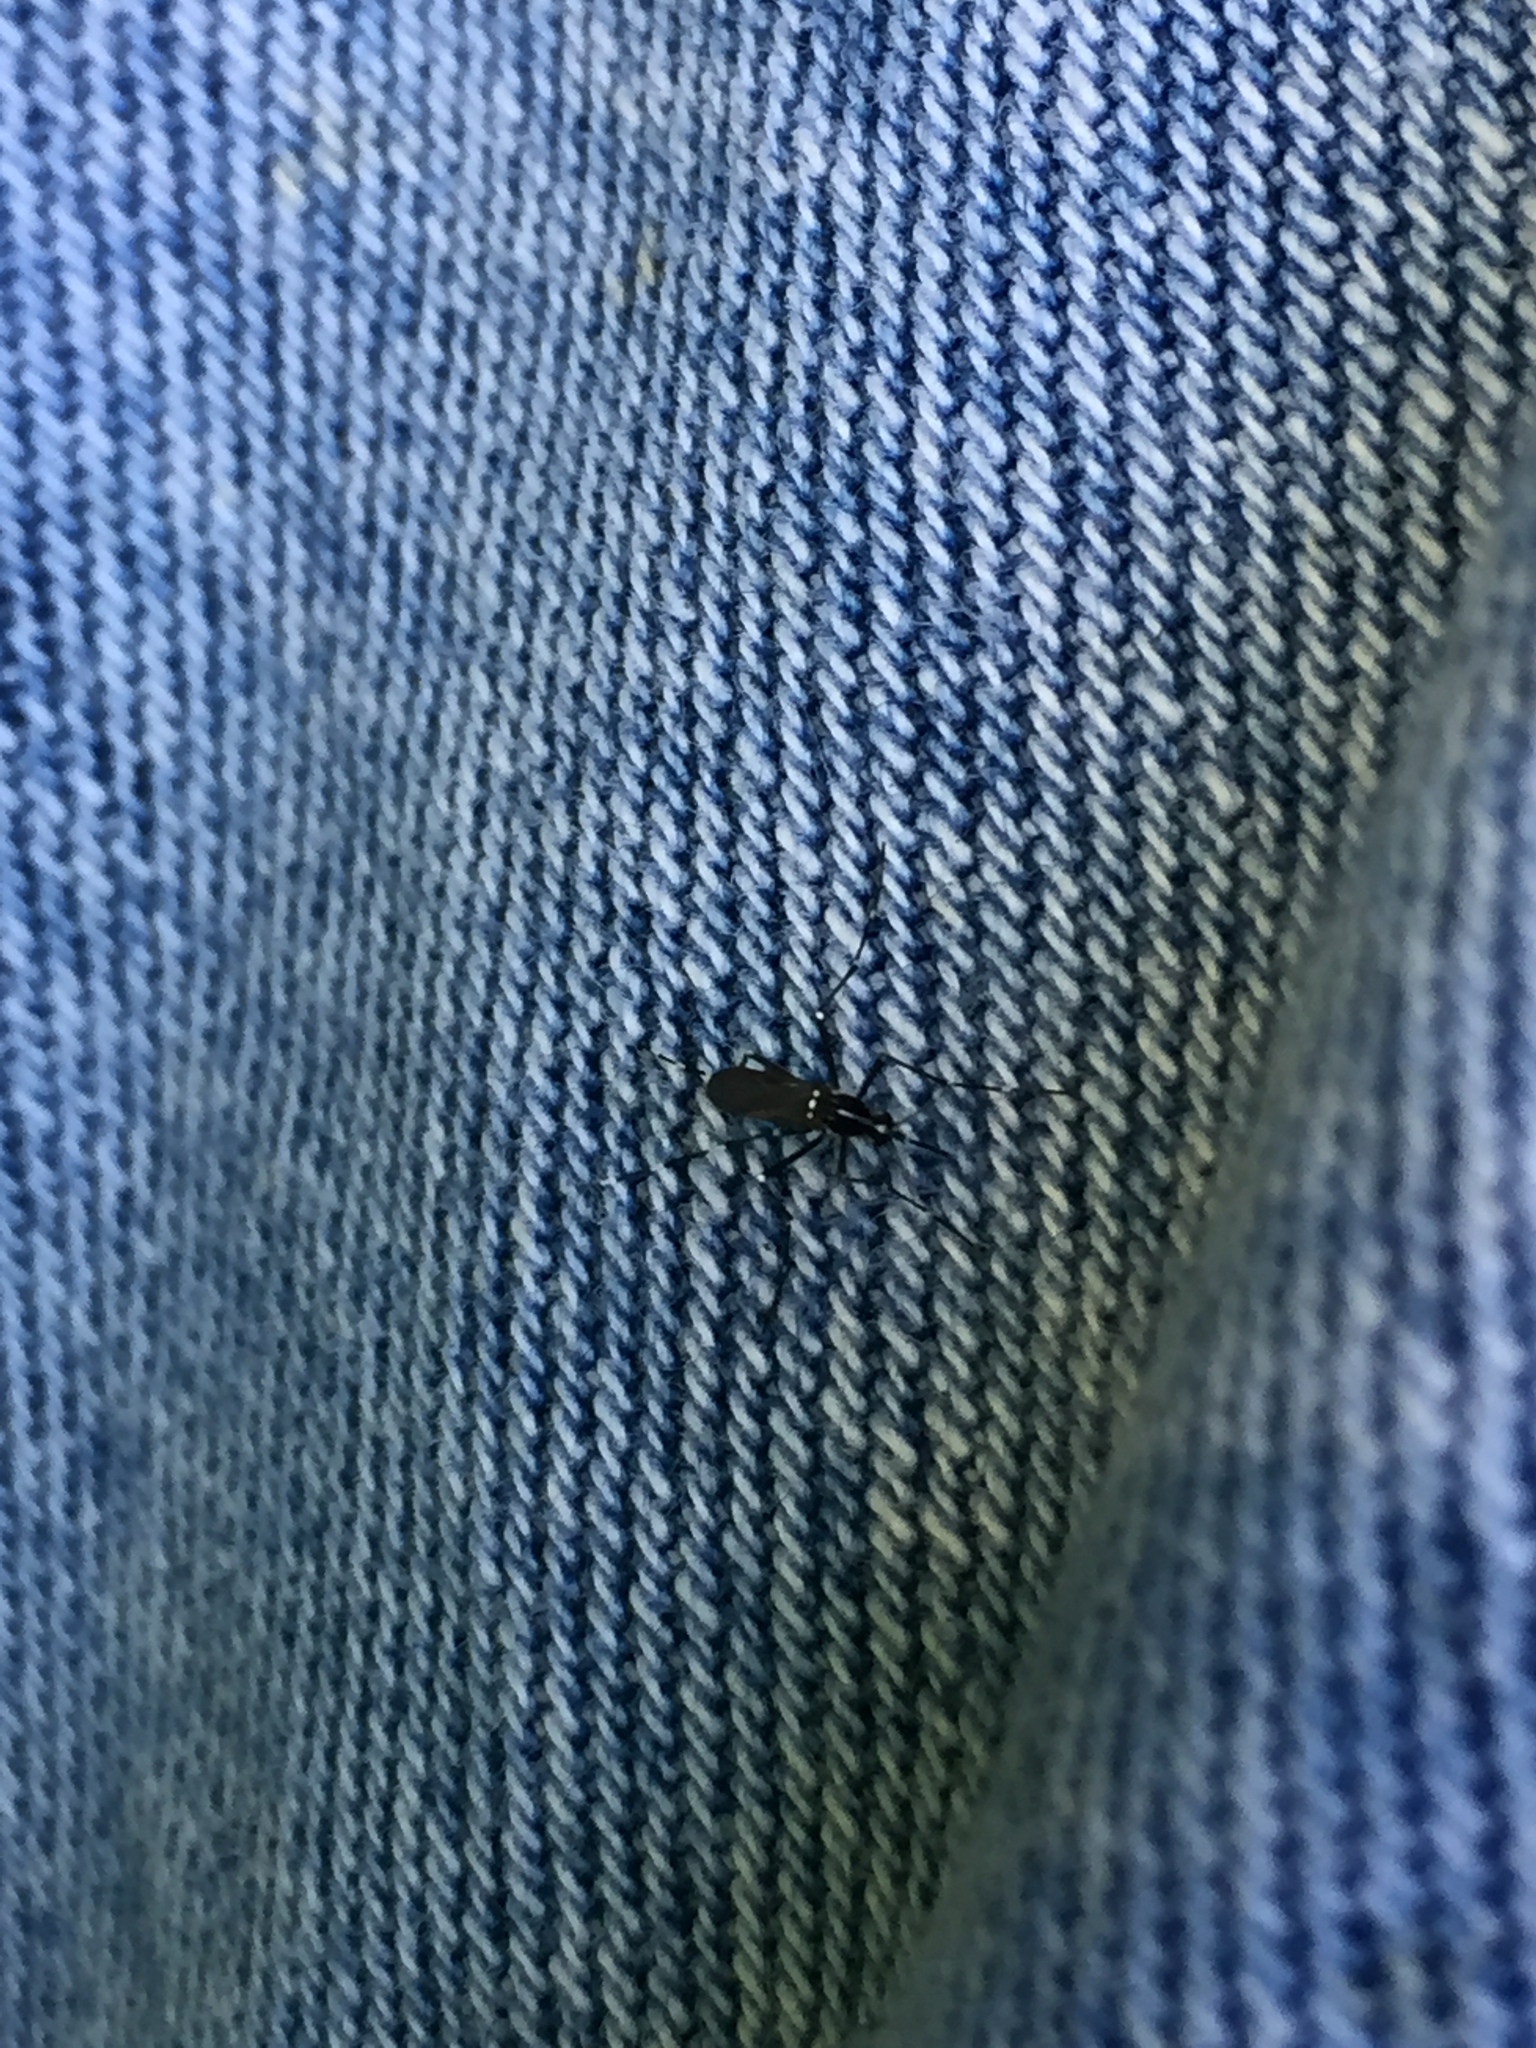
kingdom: Animalia
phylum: Arthropoda
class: Insecta
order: Diptera
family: Culicidae
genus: Aedes
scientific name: Aedes albopictus
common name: Tiger mosquito
